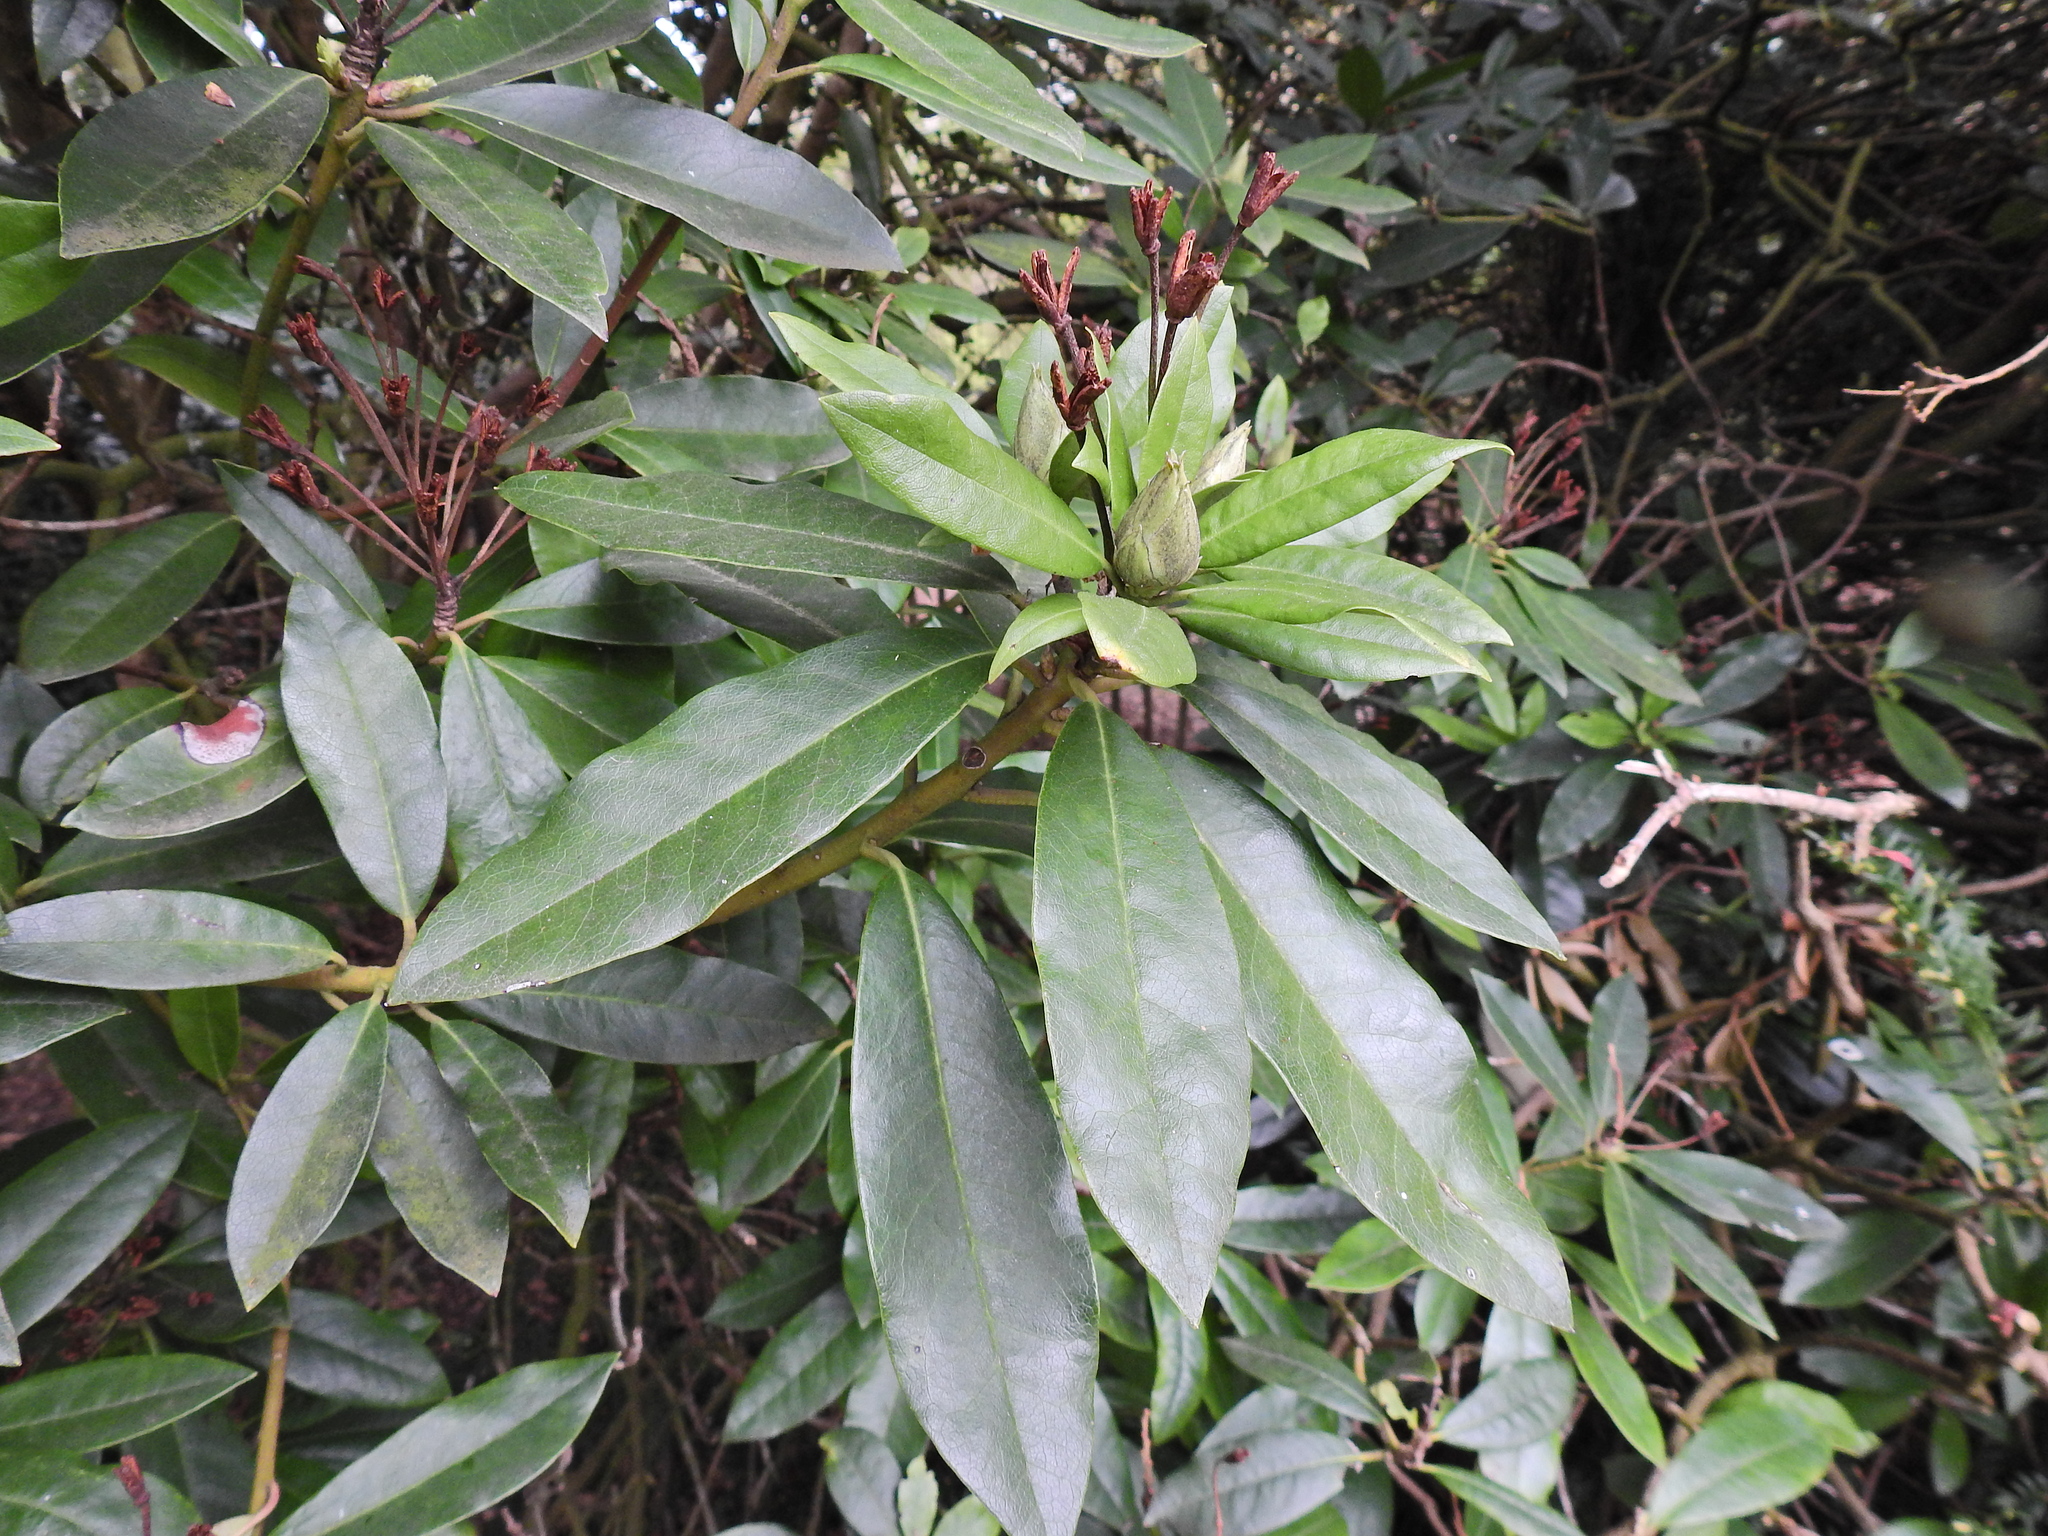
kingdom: Plantae
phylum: Tracheophyta
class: Magnoliopsida
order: Ericales
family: Ericaceae
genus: Rhododendron
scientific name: Rhododendron ponticum
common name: Rhododendron
